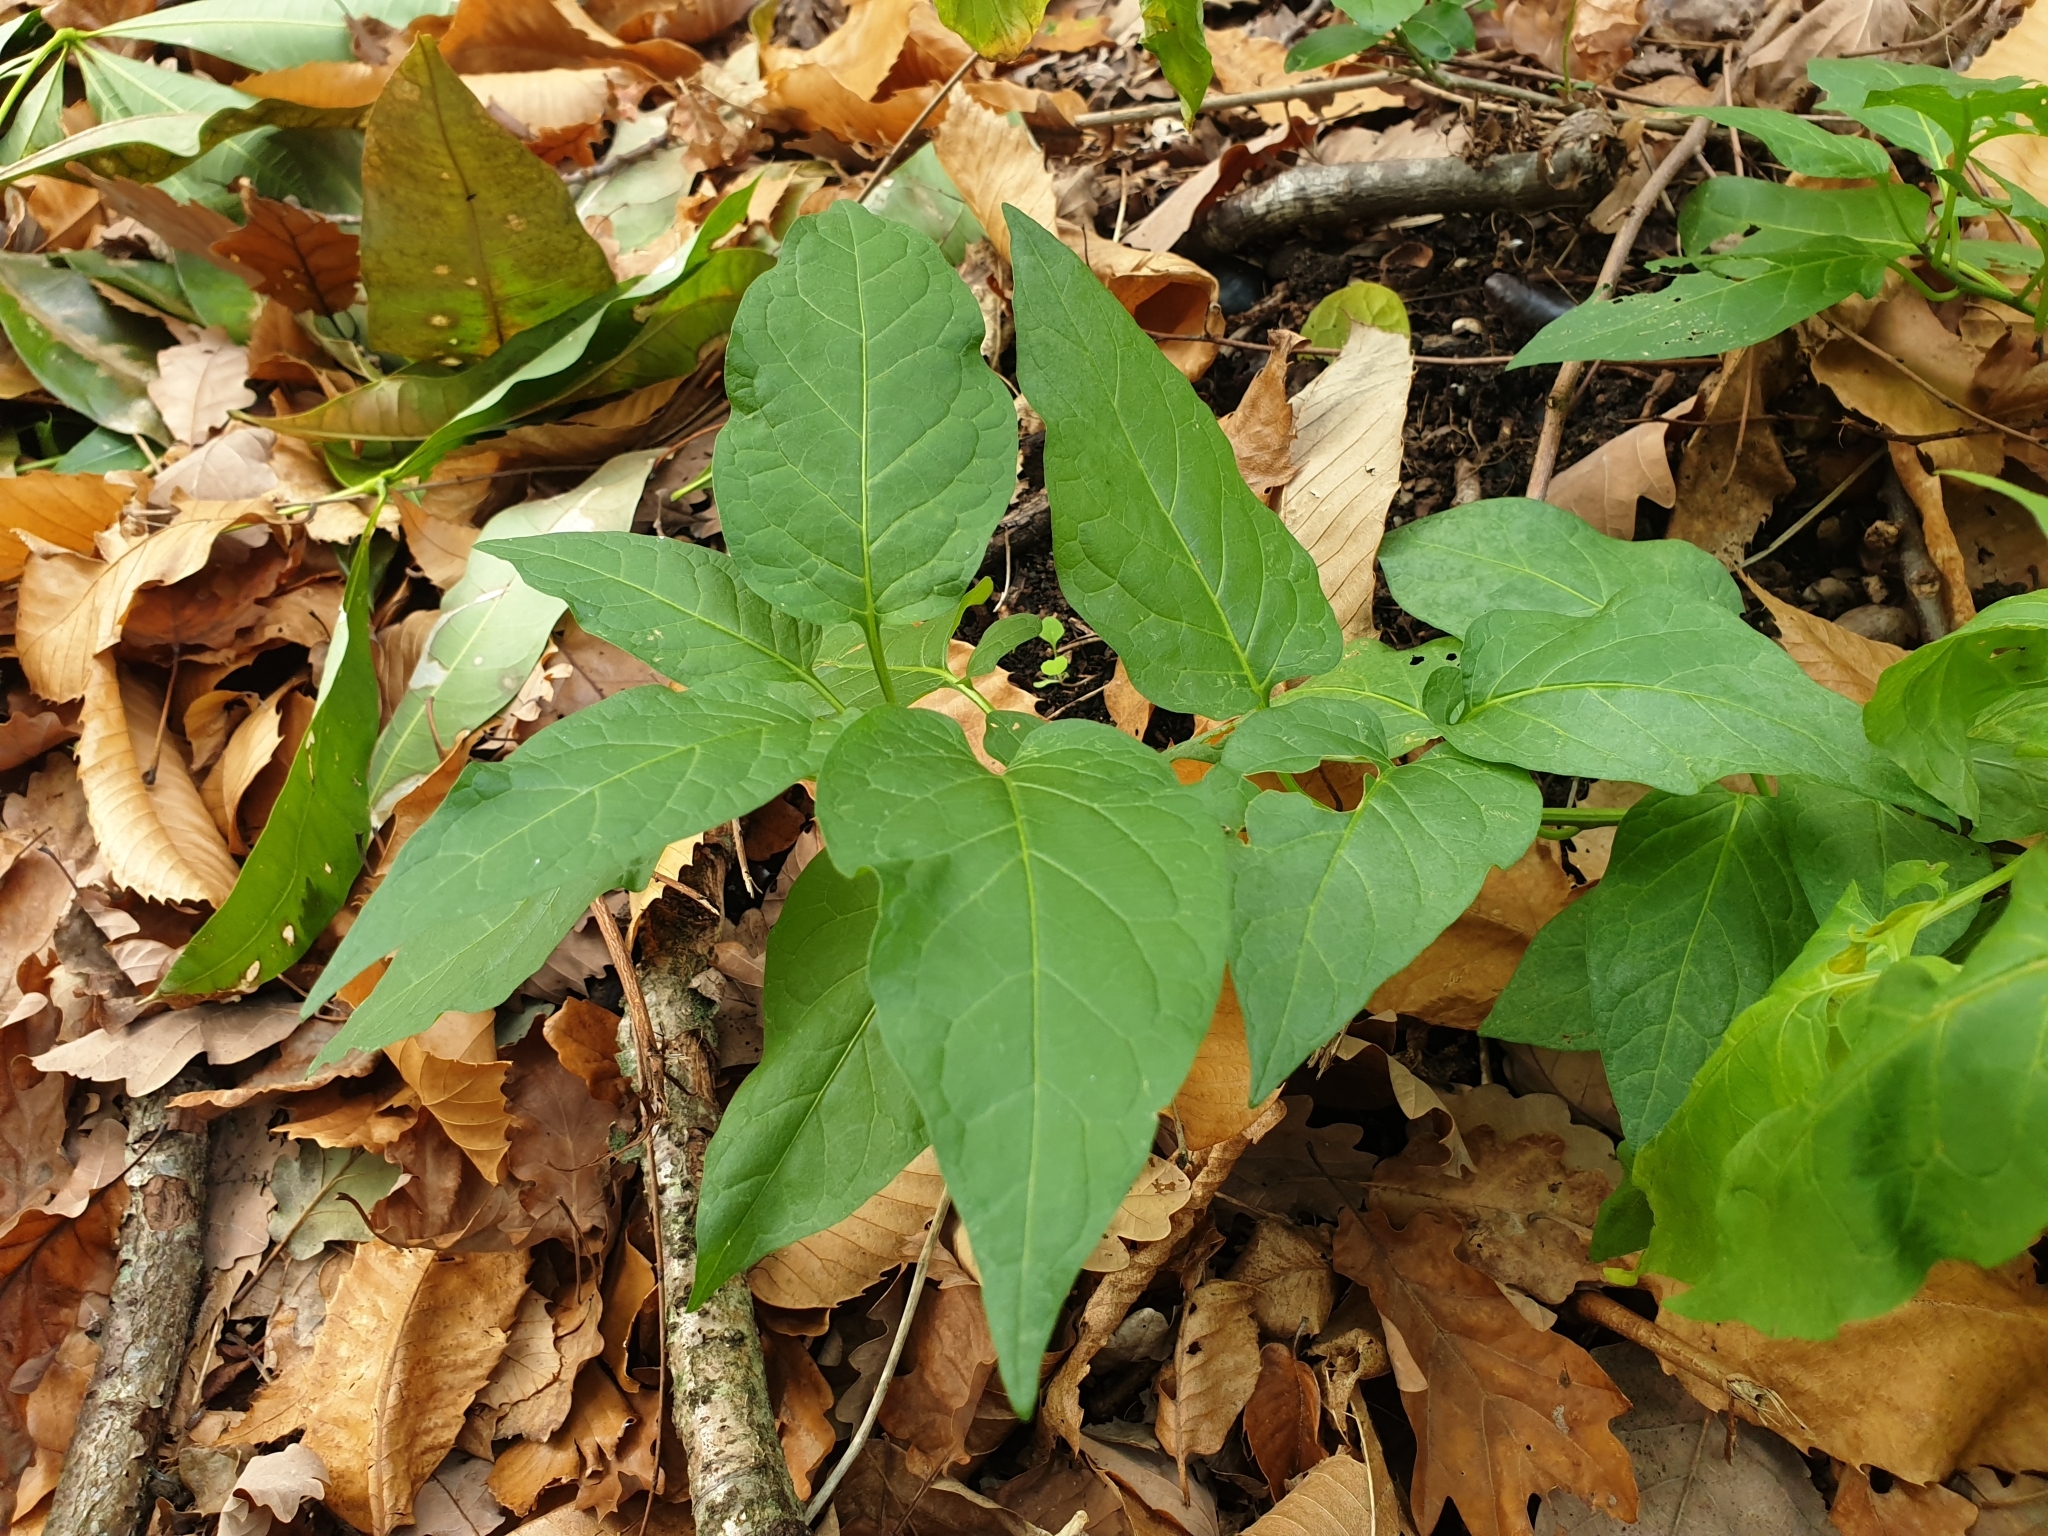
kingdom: Plantae
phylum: Tracheophyta
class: Magnoliopsida
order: Solanales
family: Solanaceae
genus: Solanum
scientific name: Solanum dulcamara
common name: Climbing nightshade
